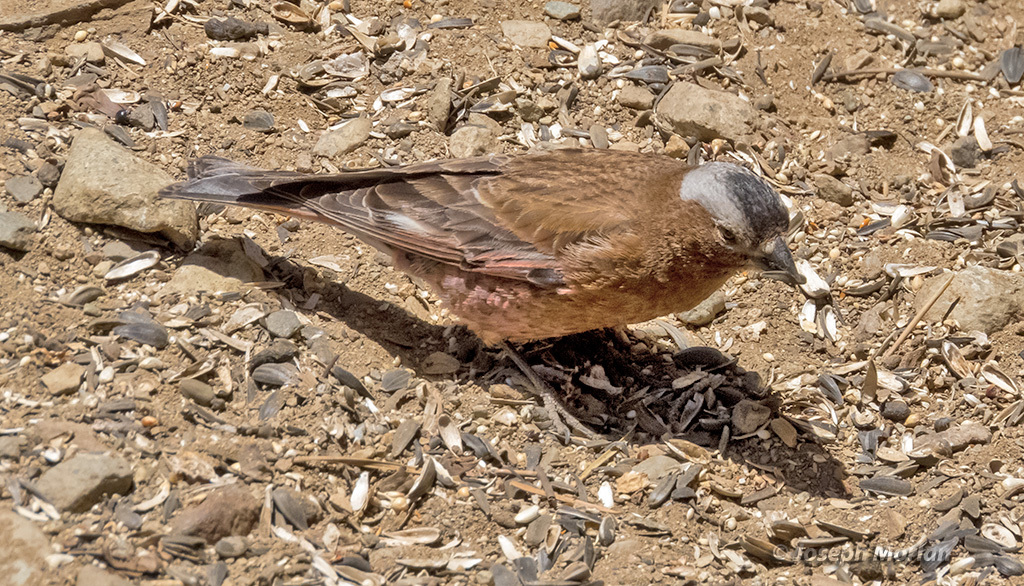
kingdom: Animalia
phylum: Chordata
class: Aves
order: Passeriformes
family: Fringillidae
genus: Leucosticte
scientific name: Leucosticte tephrocotis
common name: Gray-crowned rosy-finch
